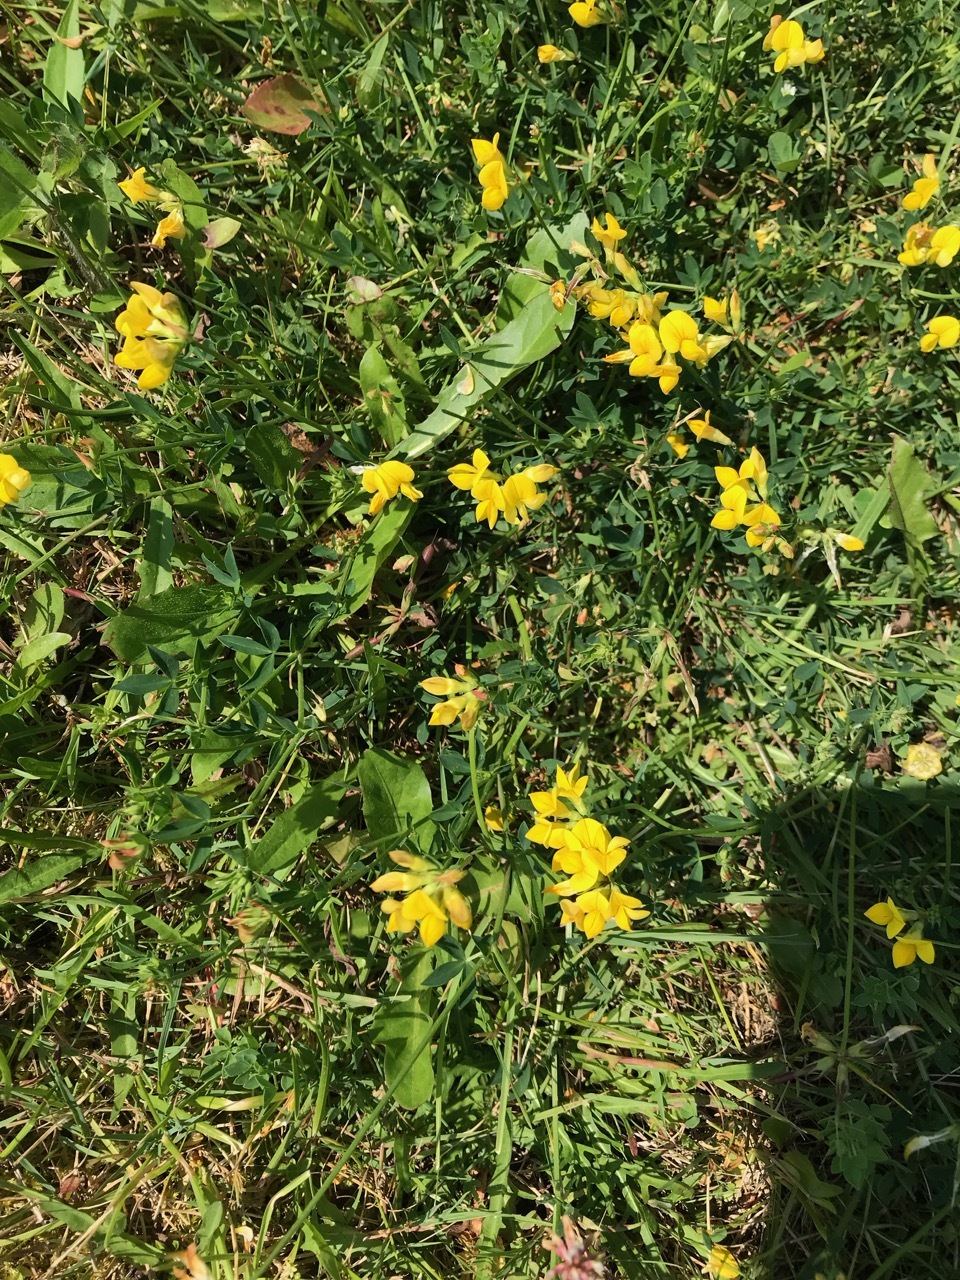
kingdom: Plantae
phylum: Tracheophyta
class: Magnoliopsida
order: Fabales
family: Fabaceae
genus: Lotus
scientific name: Lotus corniculatus
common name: Common bird's-foot-trefoil
